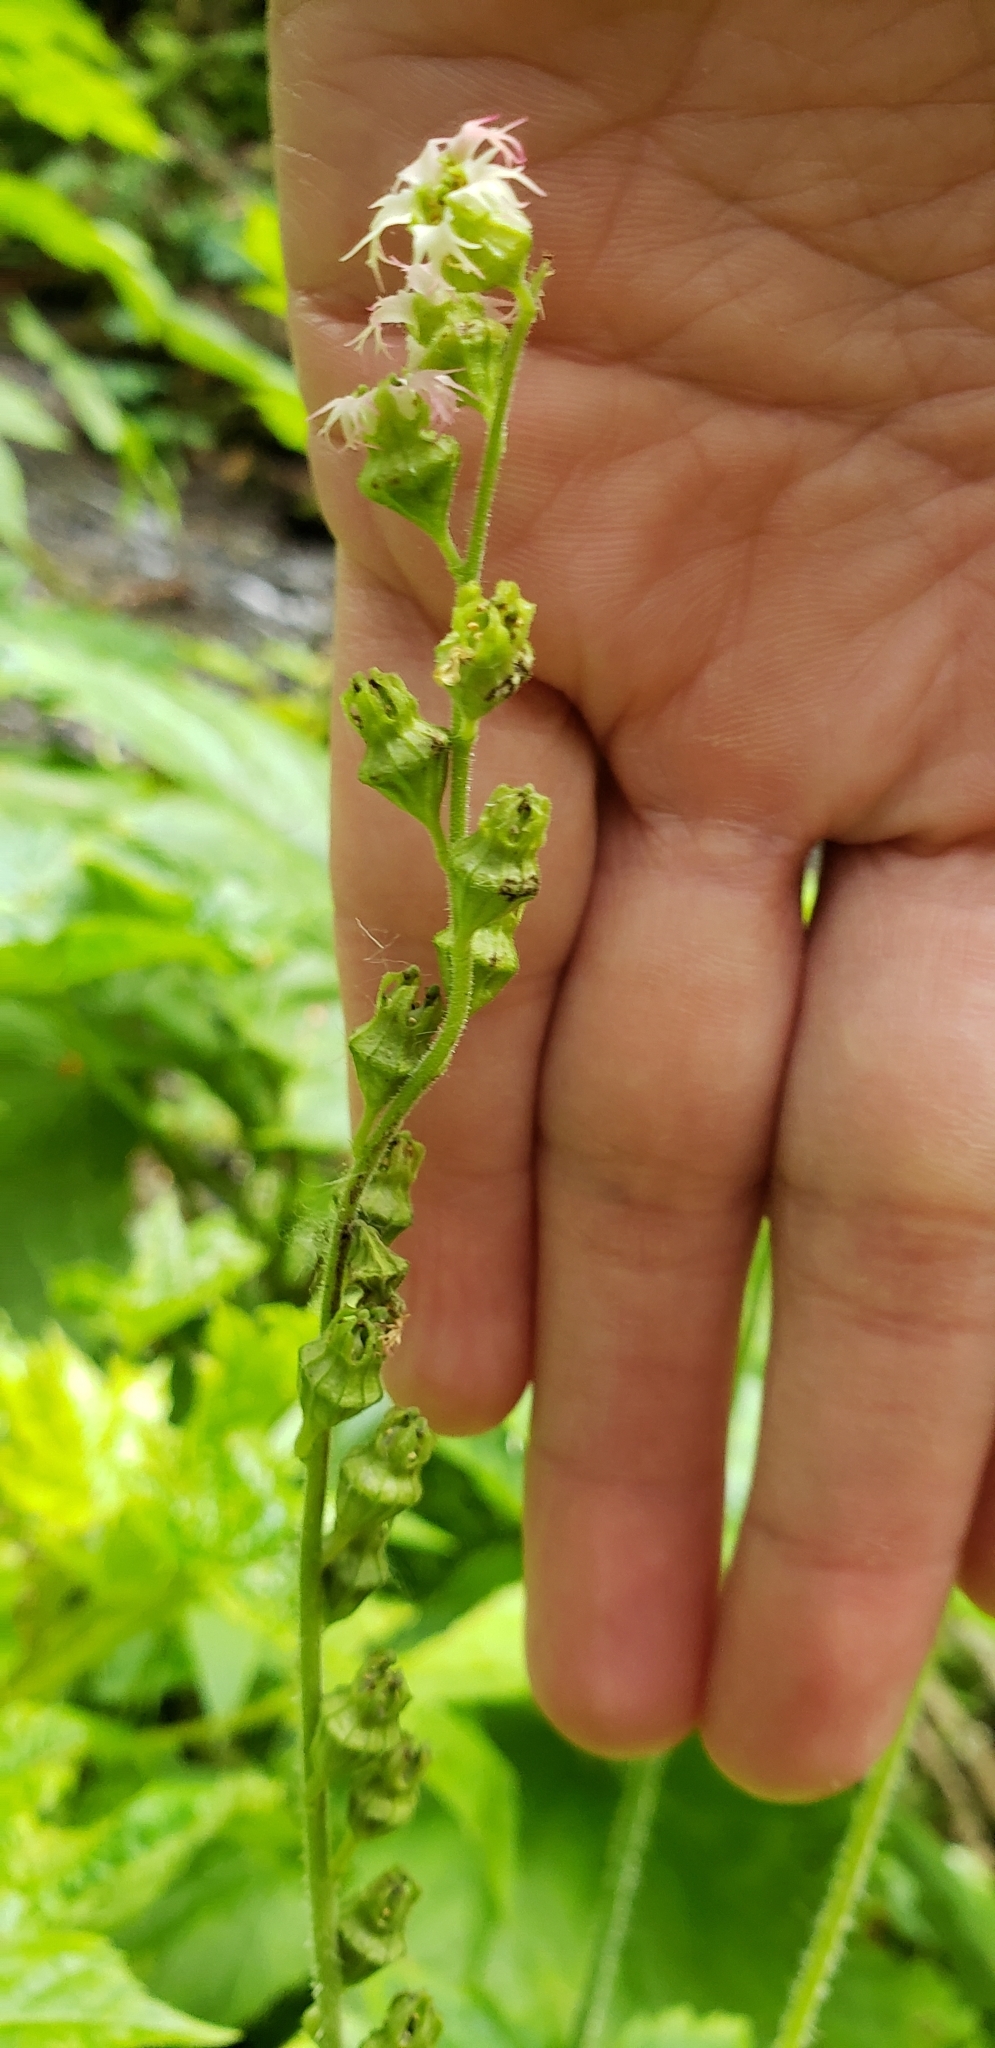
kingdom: Plantae
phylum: Tracheophyta
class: Magnoliopsida
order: Saxifragales
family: Saxifragaceae
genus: Tellima
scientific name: Tellima grandiflora
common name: Fringecups
